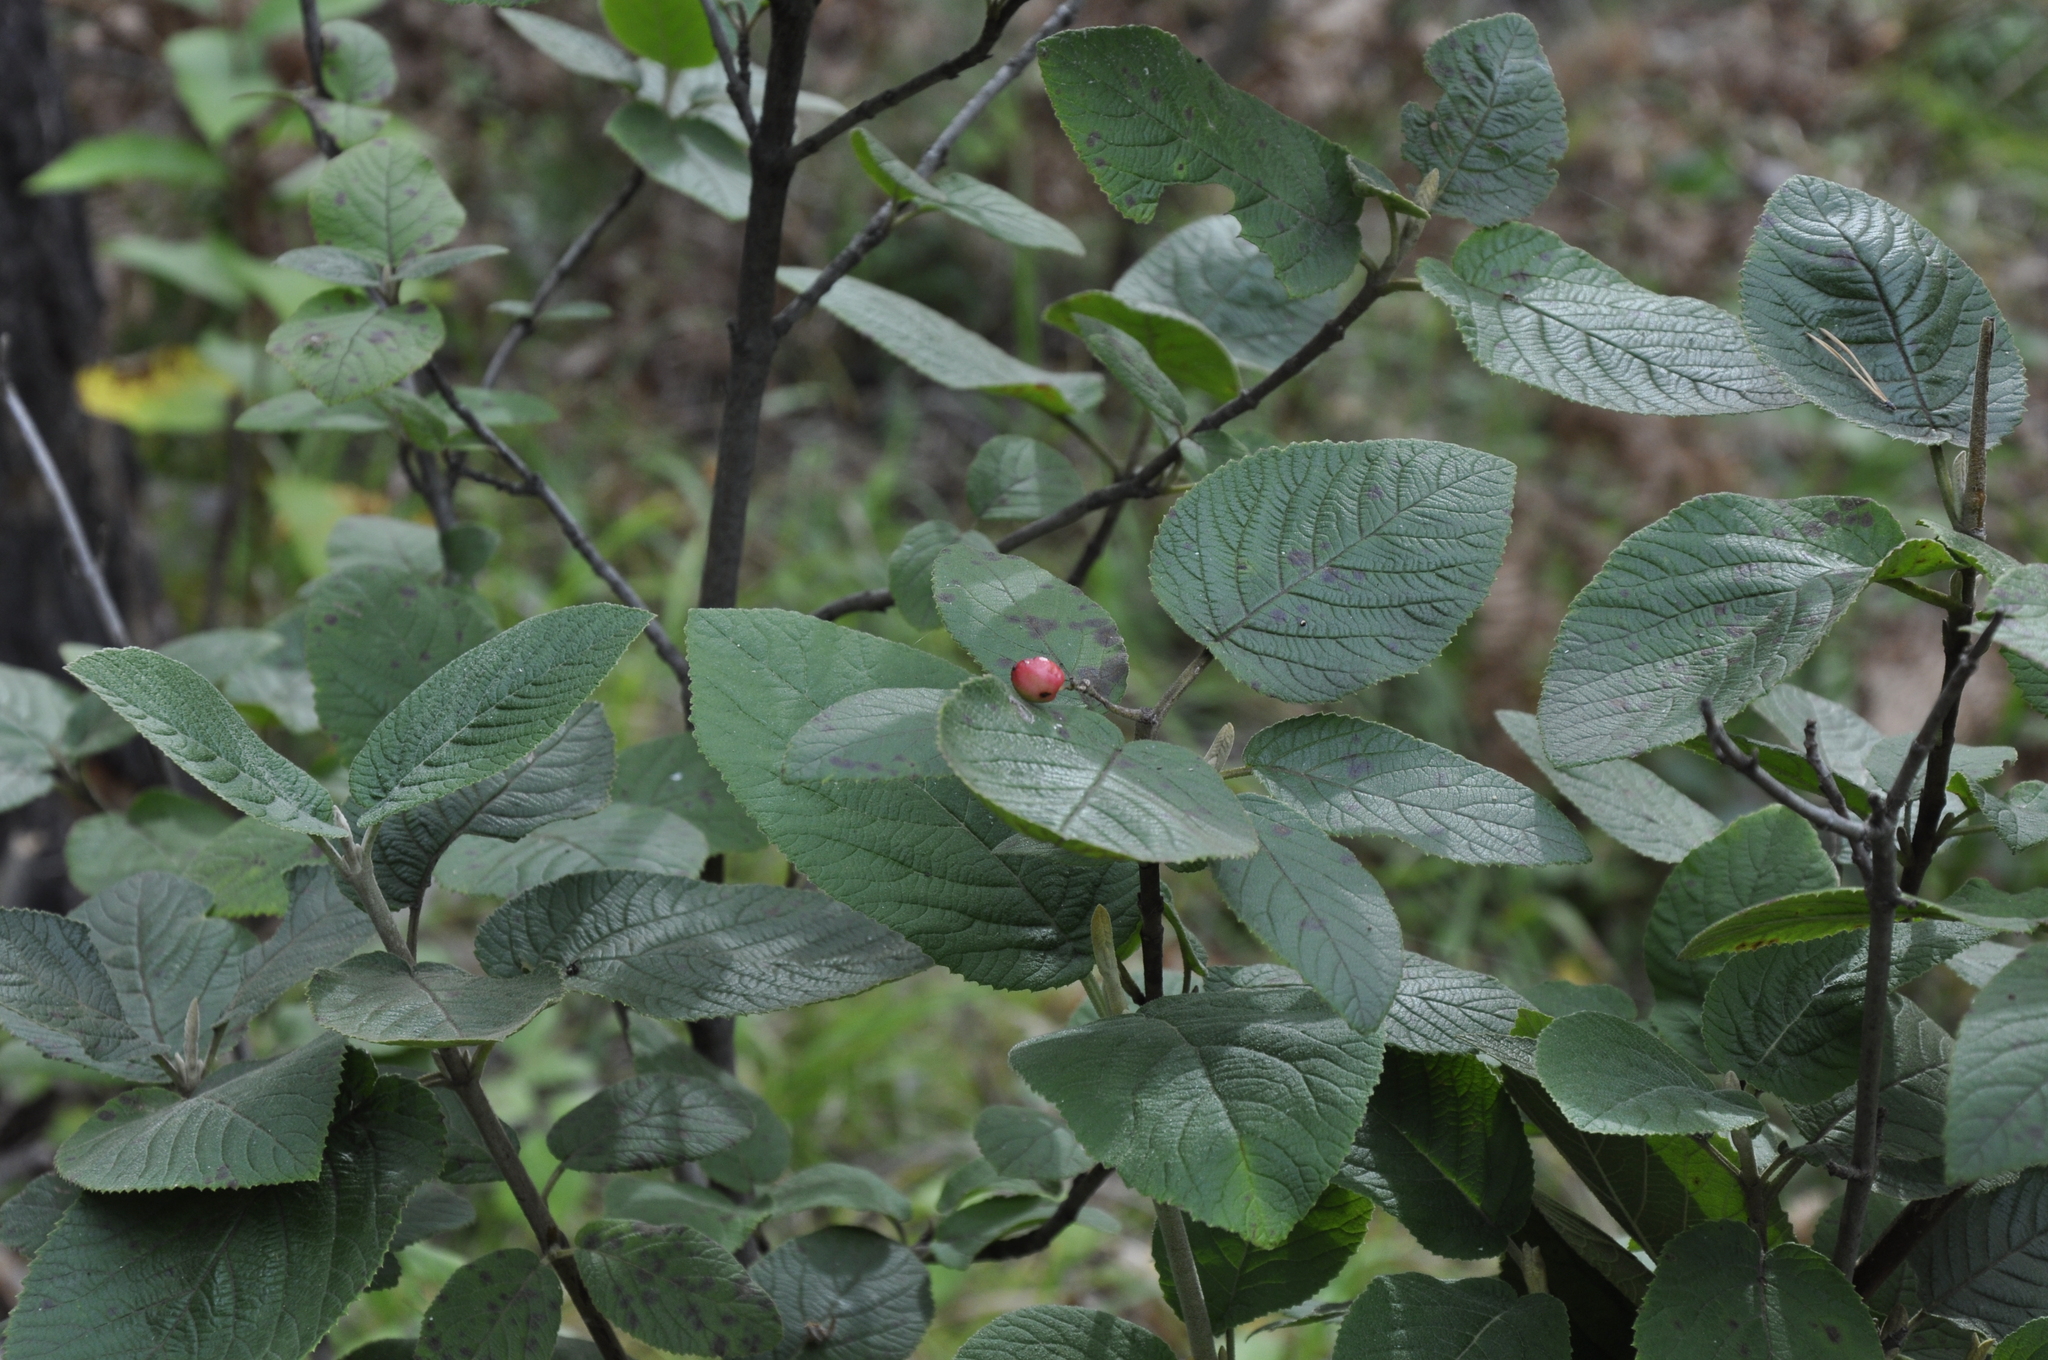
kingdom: Plantae
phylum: Tracheophyta
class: Magnoliopsida
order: Dipsacales
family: Viburnaceae
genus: Viburnum
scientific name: Viburnum lantana
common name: Wayfaring tree
